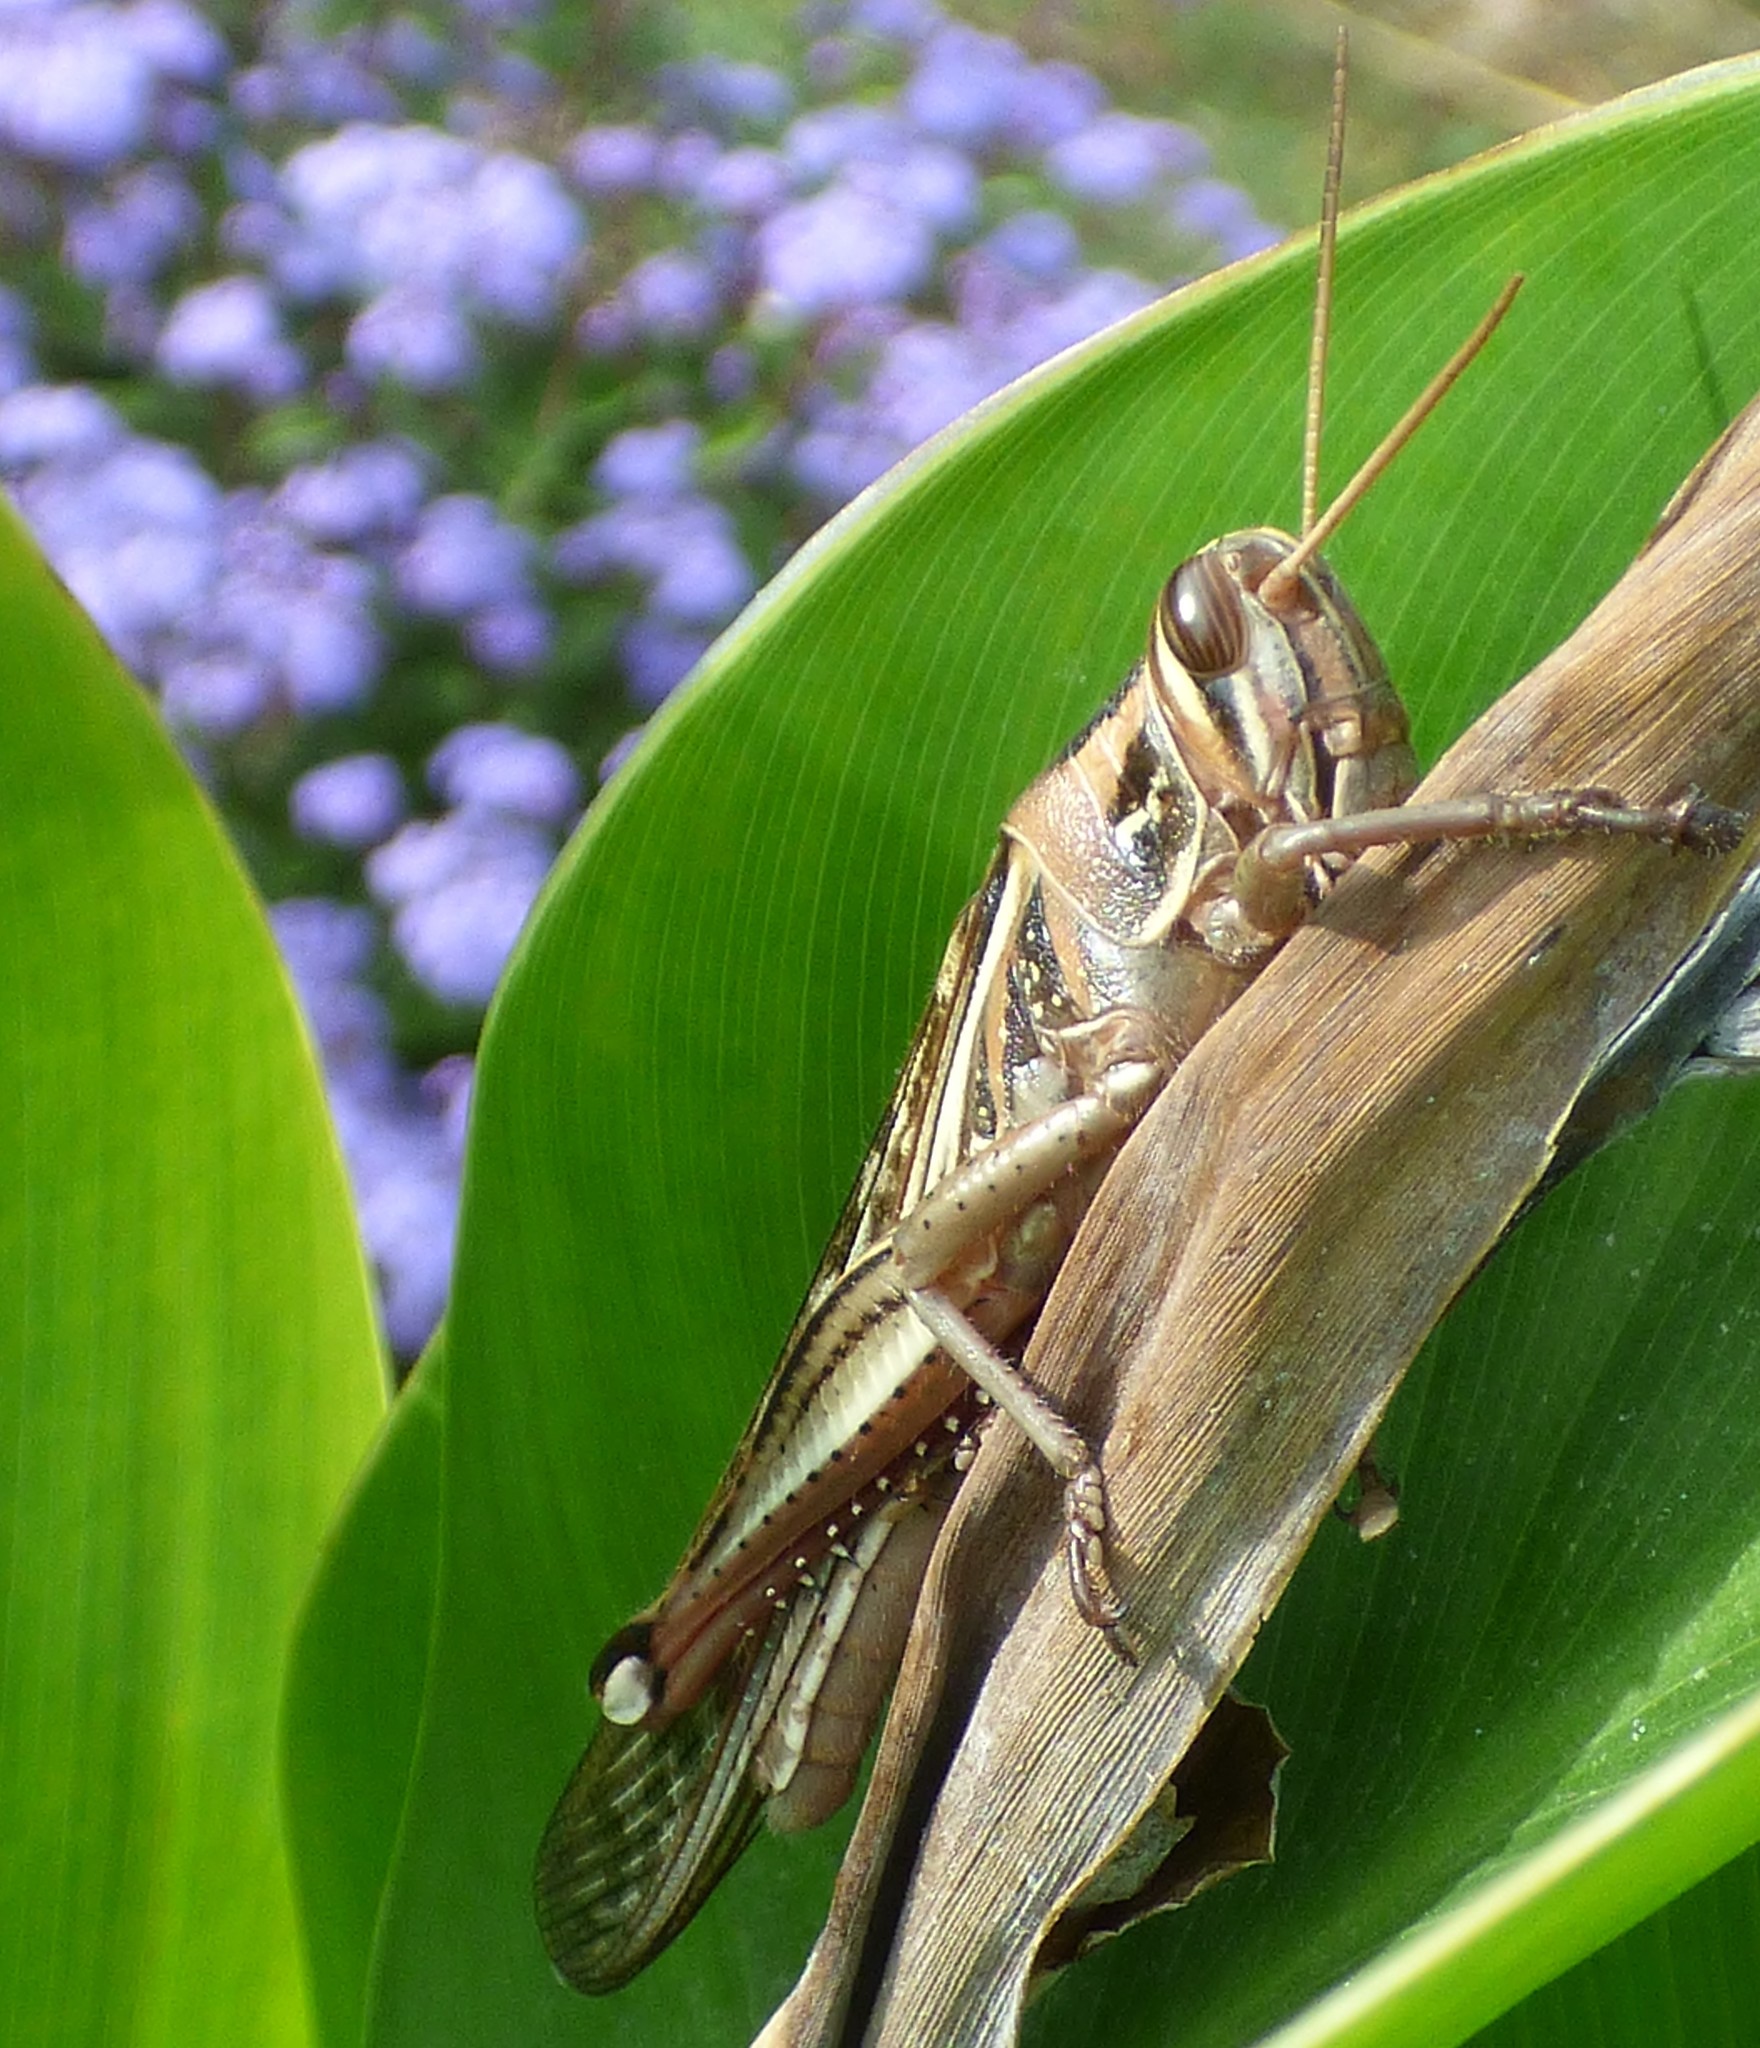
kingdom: Animalia
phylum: Arthropoda
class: Insecta
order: Orthoptera
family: Acrididae
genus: Schistocerca
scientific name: Schistocerca americana
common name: American bird locust
